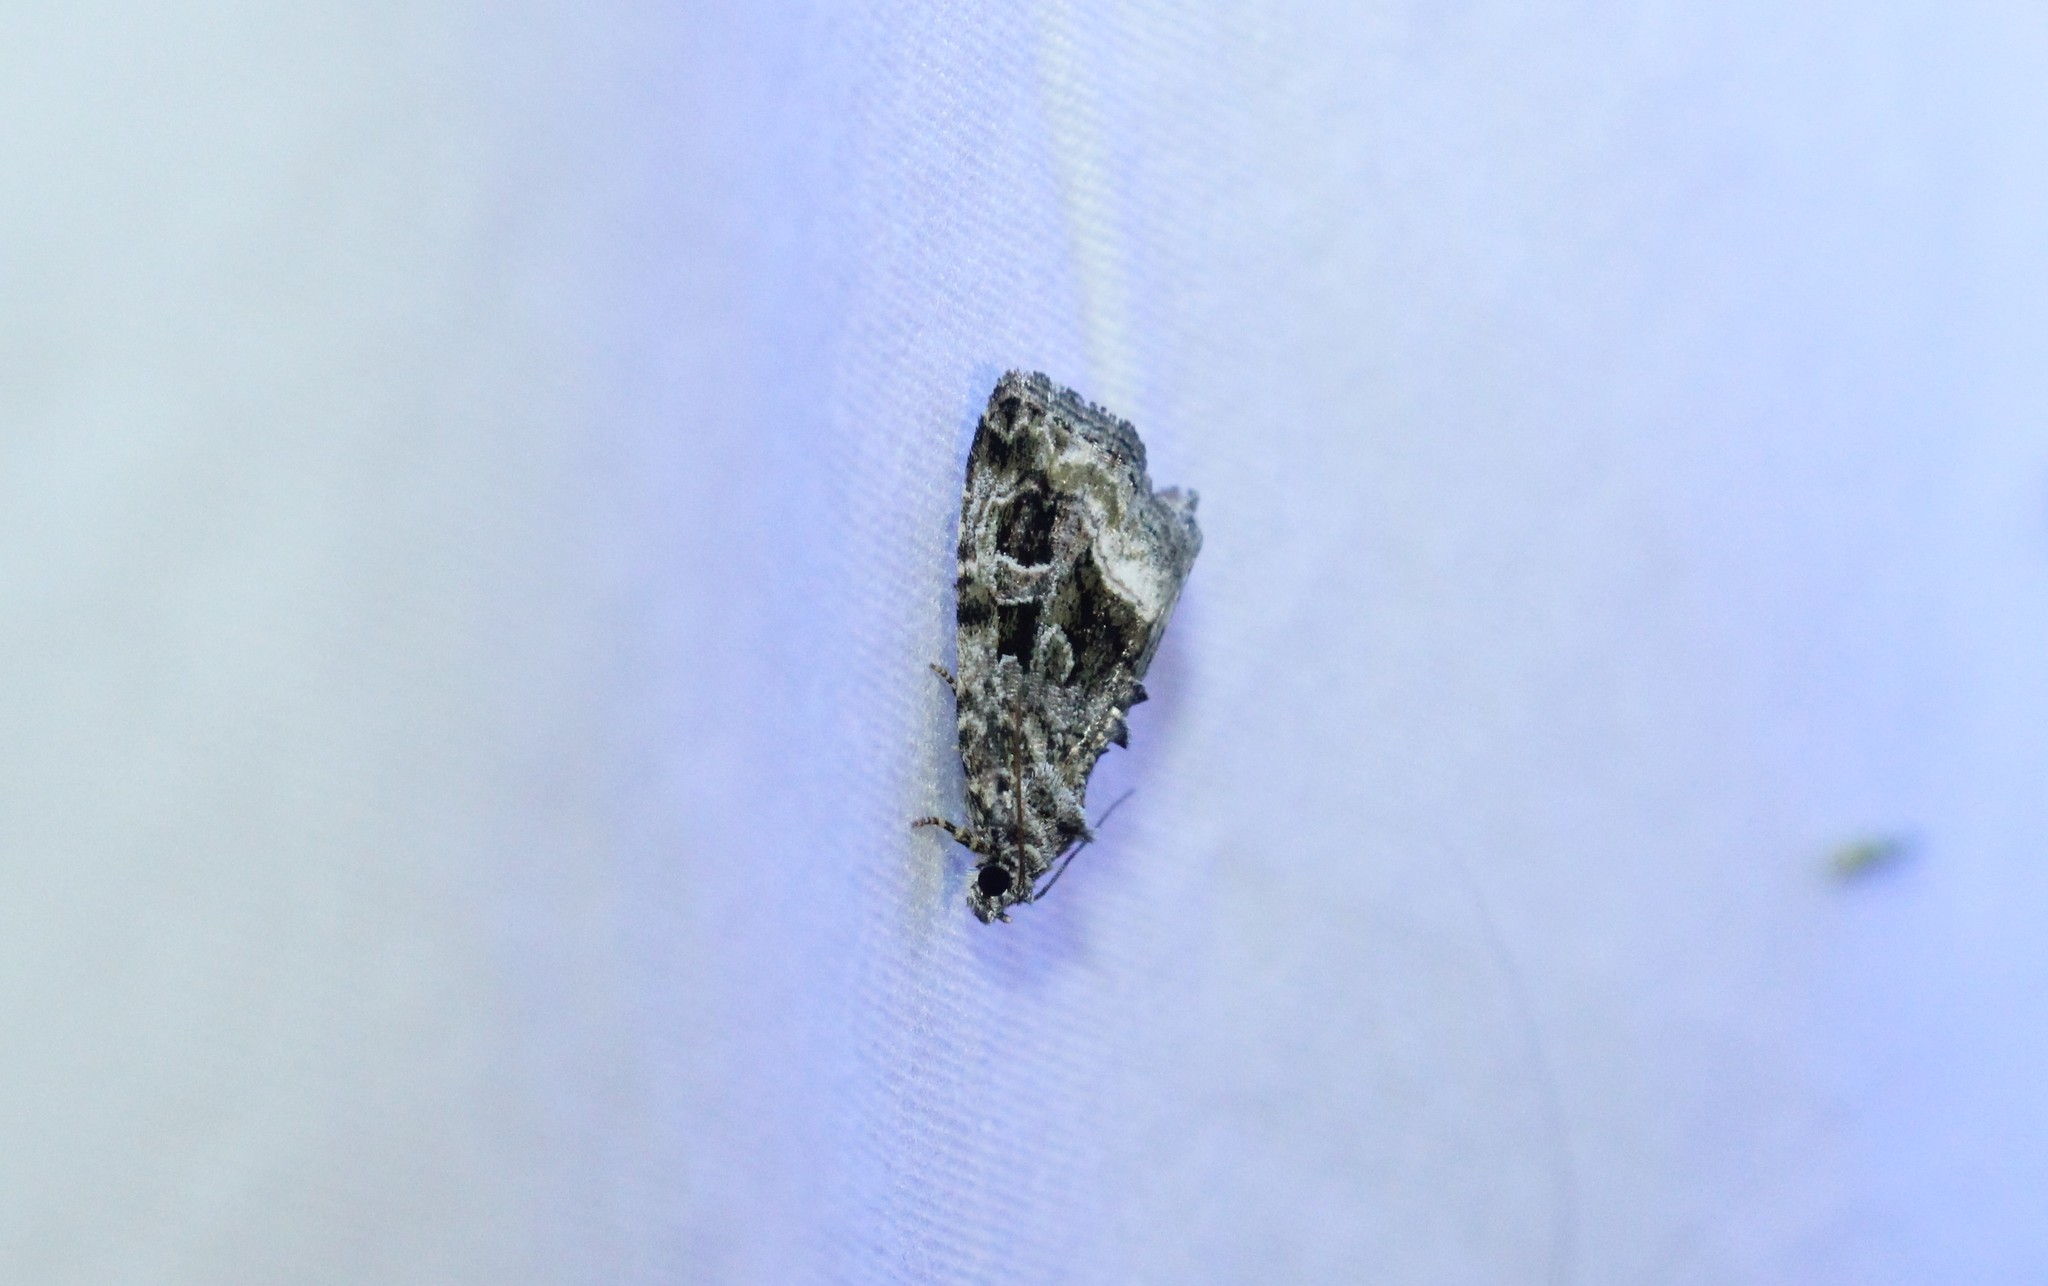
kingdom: Animalia
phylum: Arthropoda
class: Insecta
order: Lepidoptera
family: Noctuidae
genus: Protodeltote
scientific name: Protodeltote muscosula
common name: Large mossy glyph
